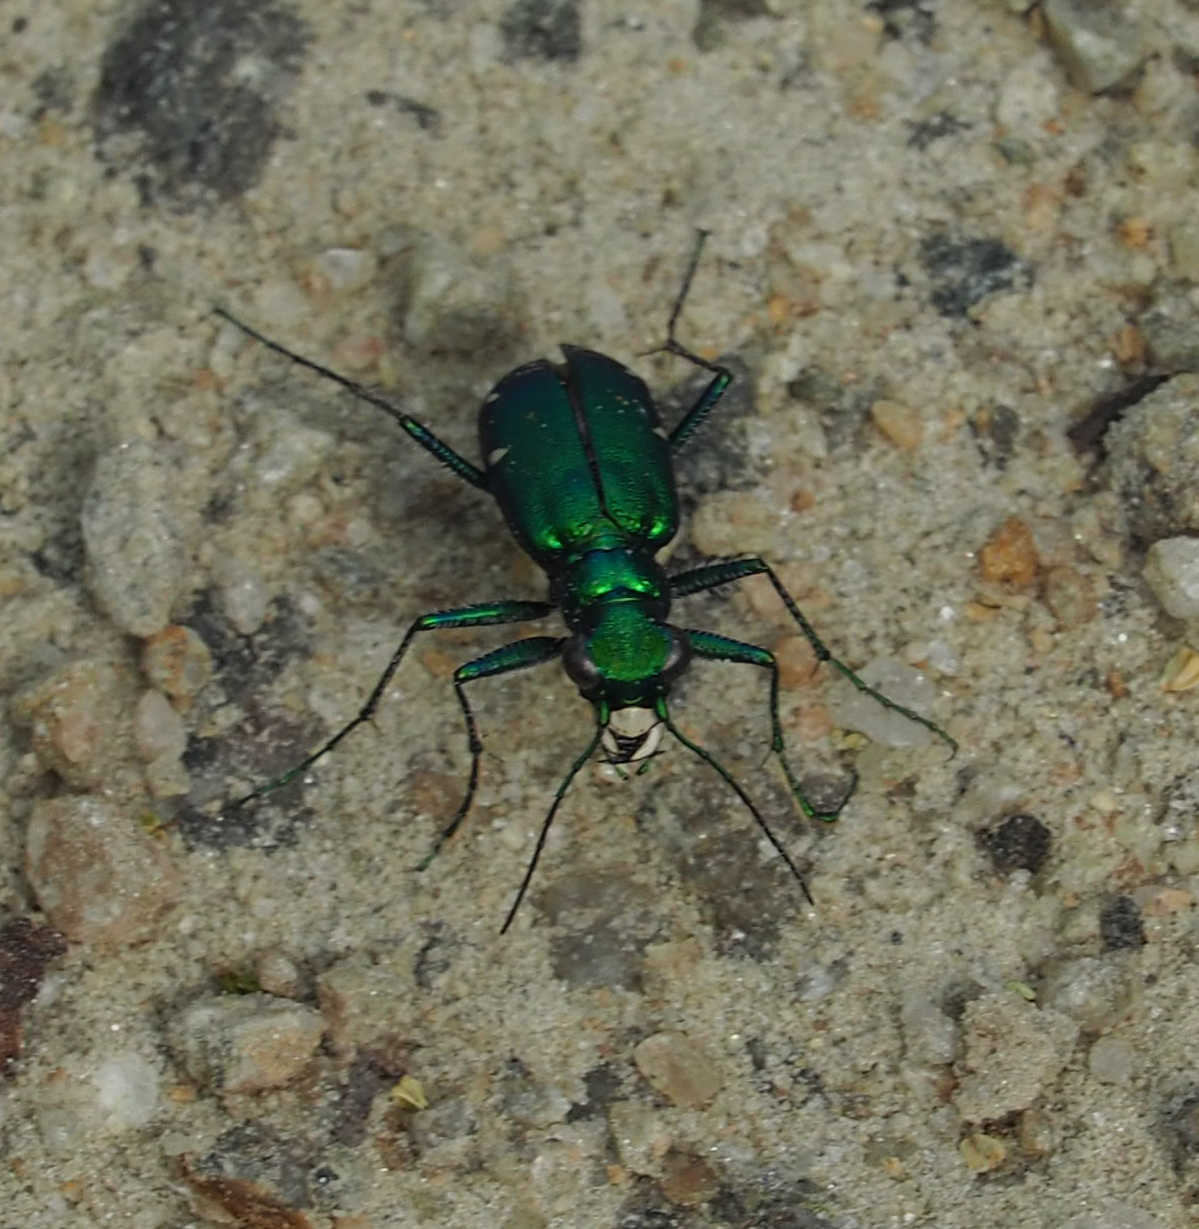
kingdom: Animalia
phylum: Arthropoda
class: Insecta
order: Coleoptera
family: Carabidae
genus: Cicindela
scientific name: Cicindela sexguttata
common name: Six-spotted tiger beetle
